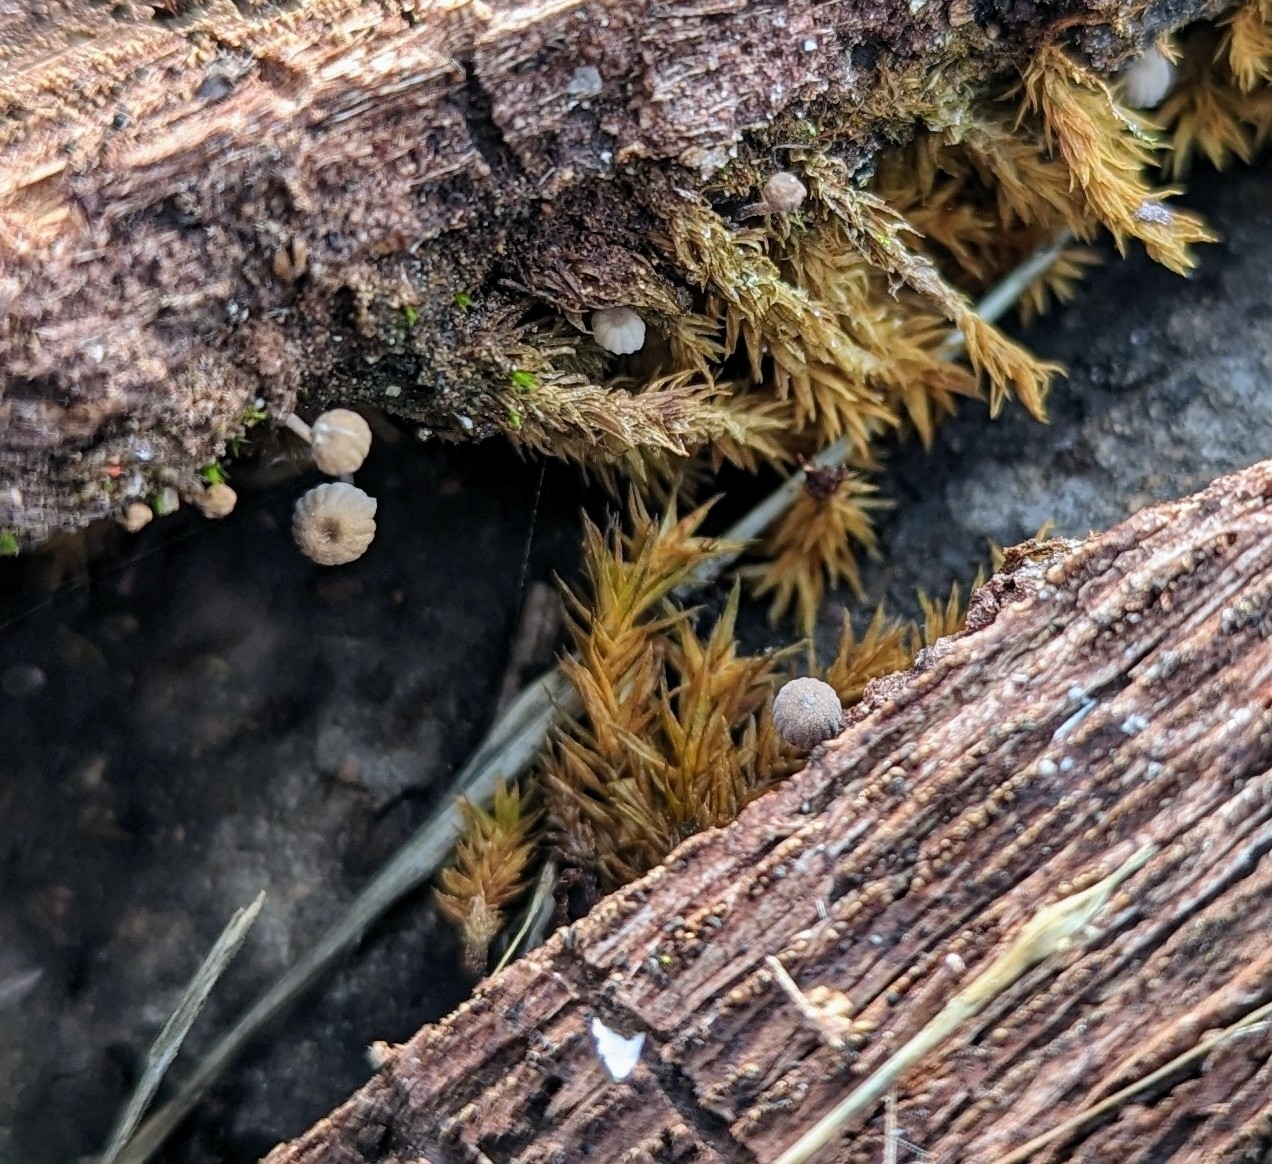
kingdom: Fungi
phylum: Basidiomycota
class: Agaricomycetes
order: Agaricales
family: Mycenaceae
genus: Mycena
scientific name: Mycena meliigena
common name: Mauve bonnet
